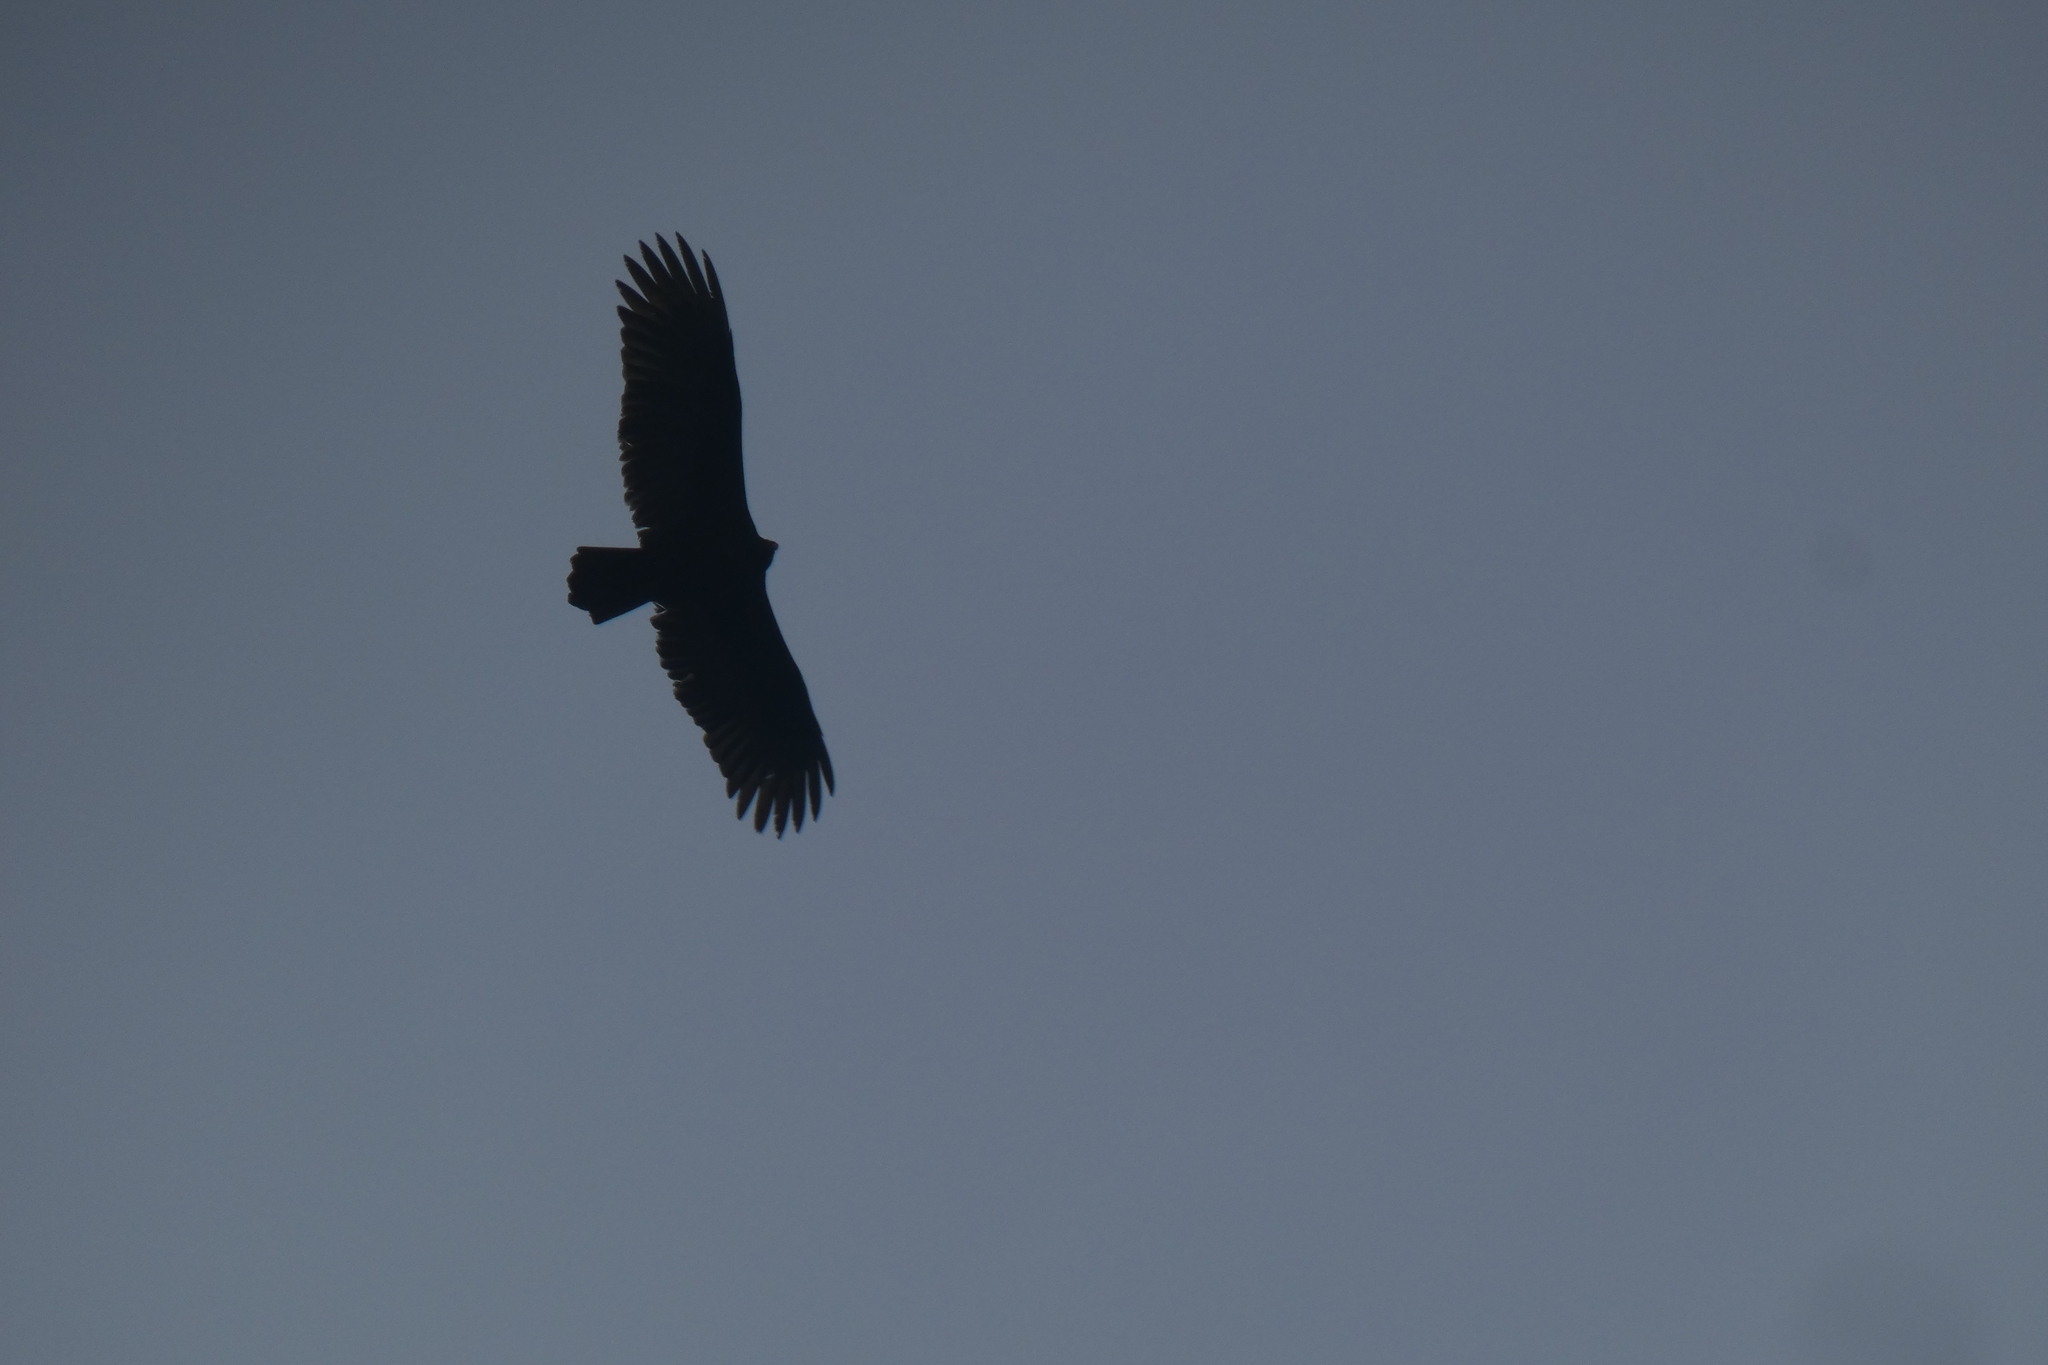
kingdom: Animalia
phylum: Chordata
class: Aves
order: Accipitriformes
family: Cathartidae
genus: Cathartes
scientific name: Cathartes aura
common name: Turkey vulture
